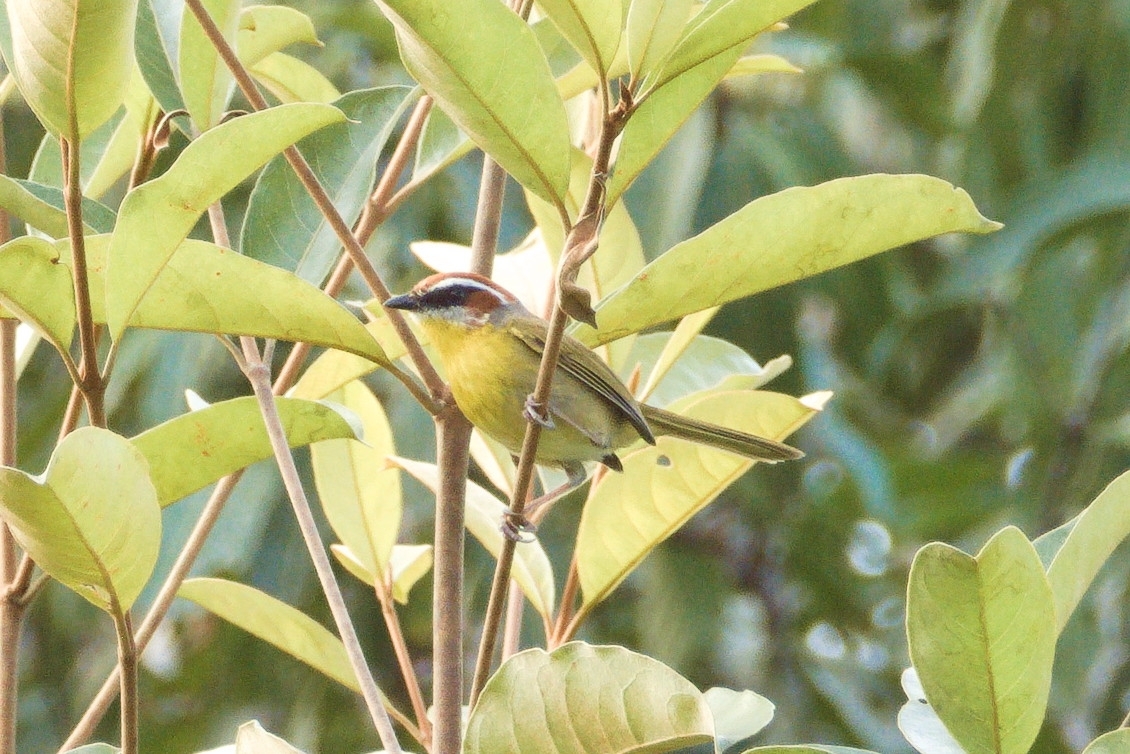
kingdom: Animalia
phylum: Chordata
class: Aves
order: Passeriformes
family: Parulidae
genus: Basileuterus
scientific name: Basileuterus rufifrons
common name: Rufous-capped warbler
